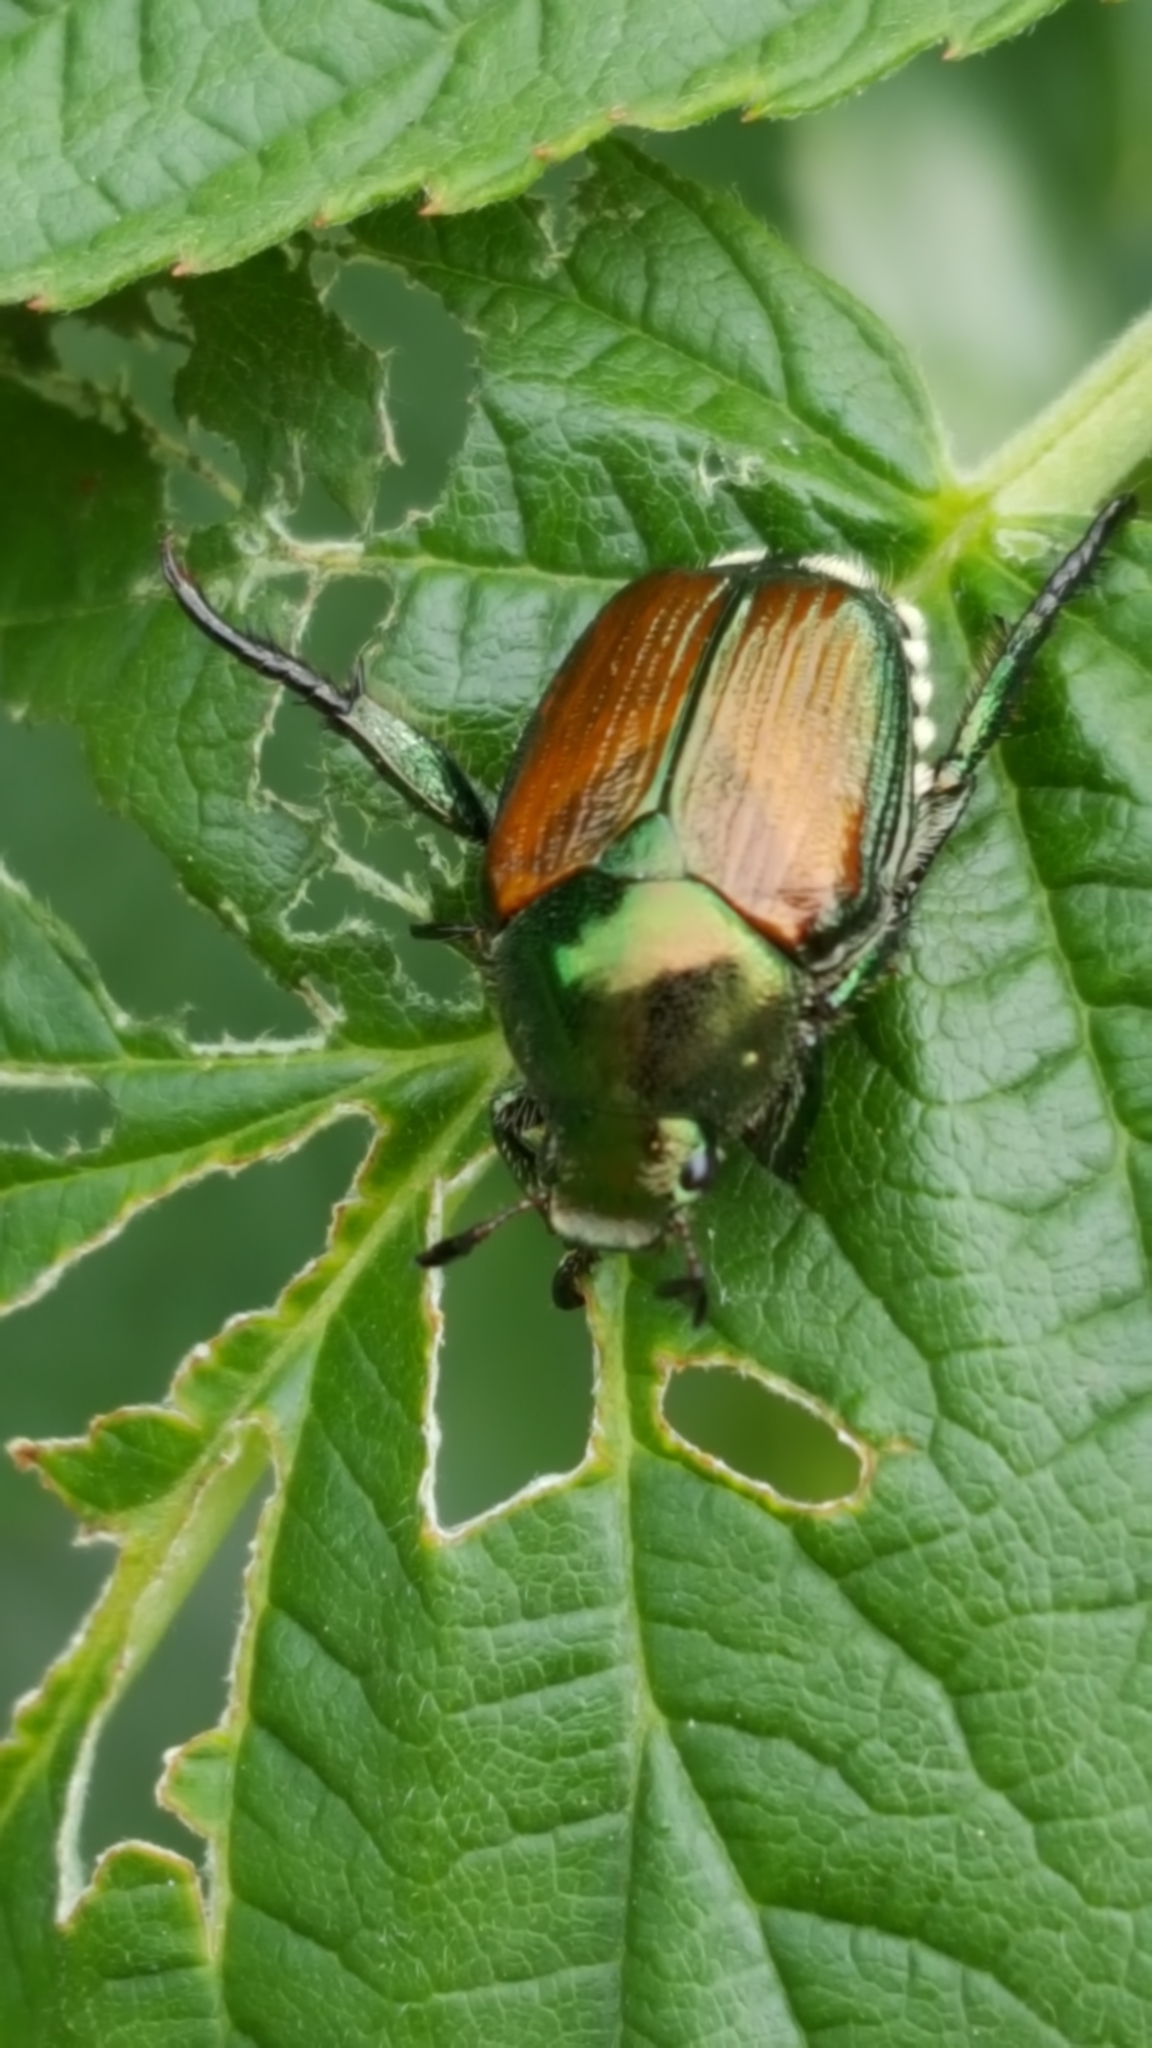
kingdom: Animalia
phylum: Arthropoda
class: Insecta
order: Coleoptera
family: Scarabaeidae
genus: Popillia
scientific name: Popillia japonica
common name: Japanese beetle
